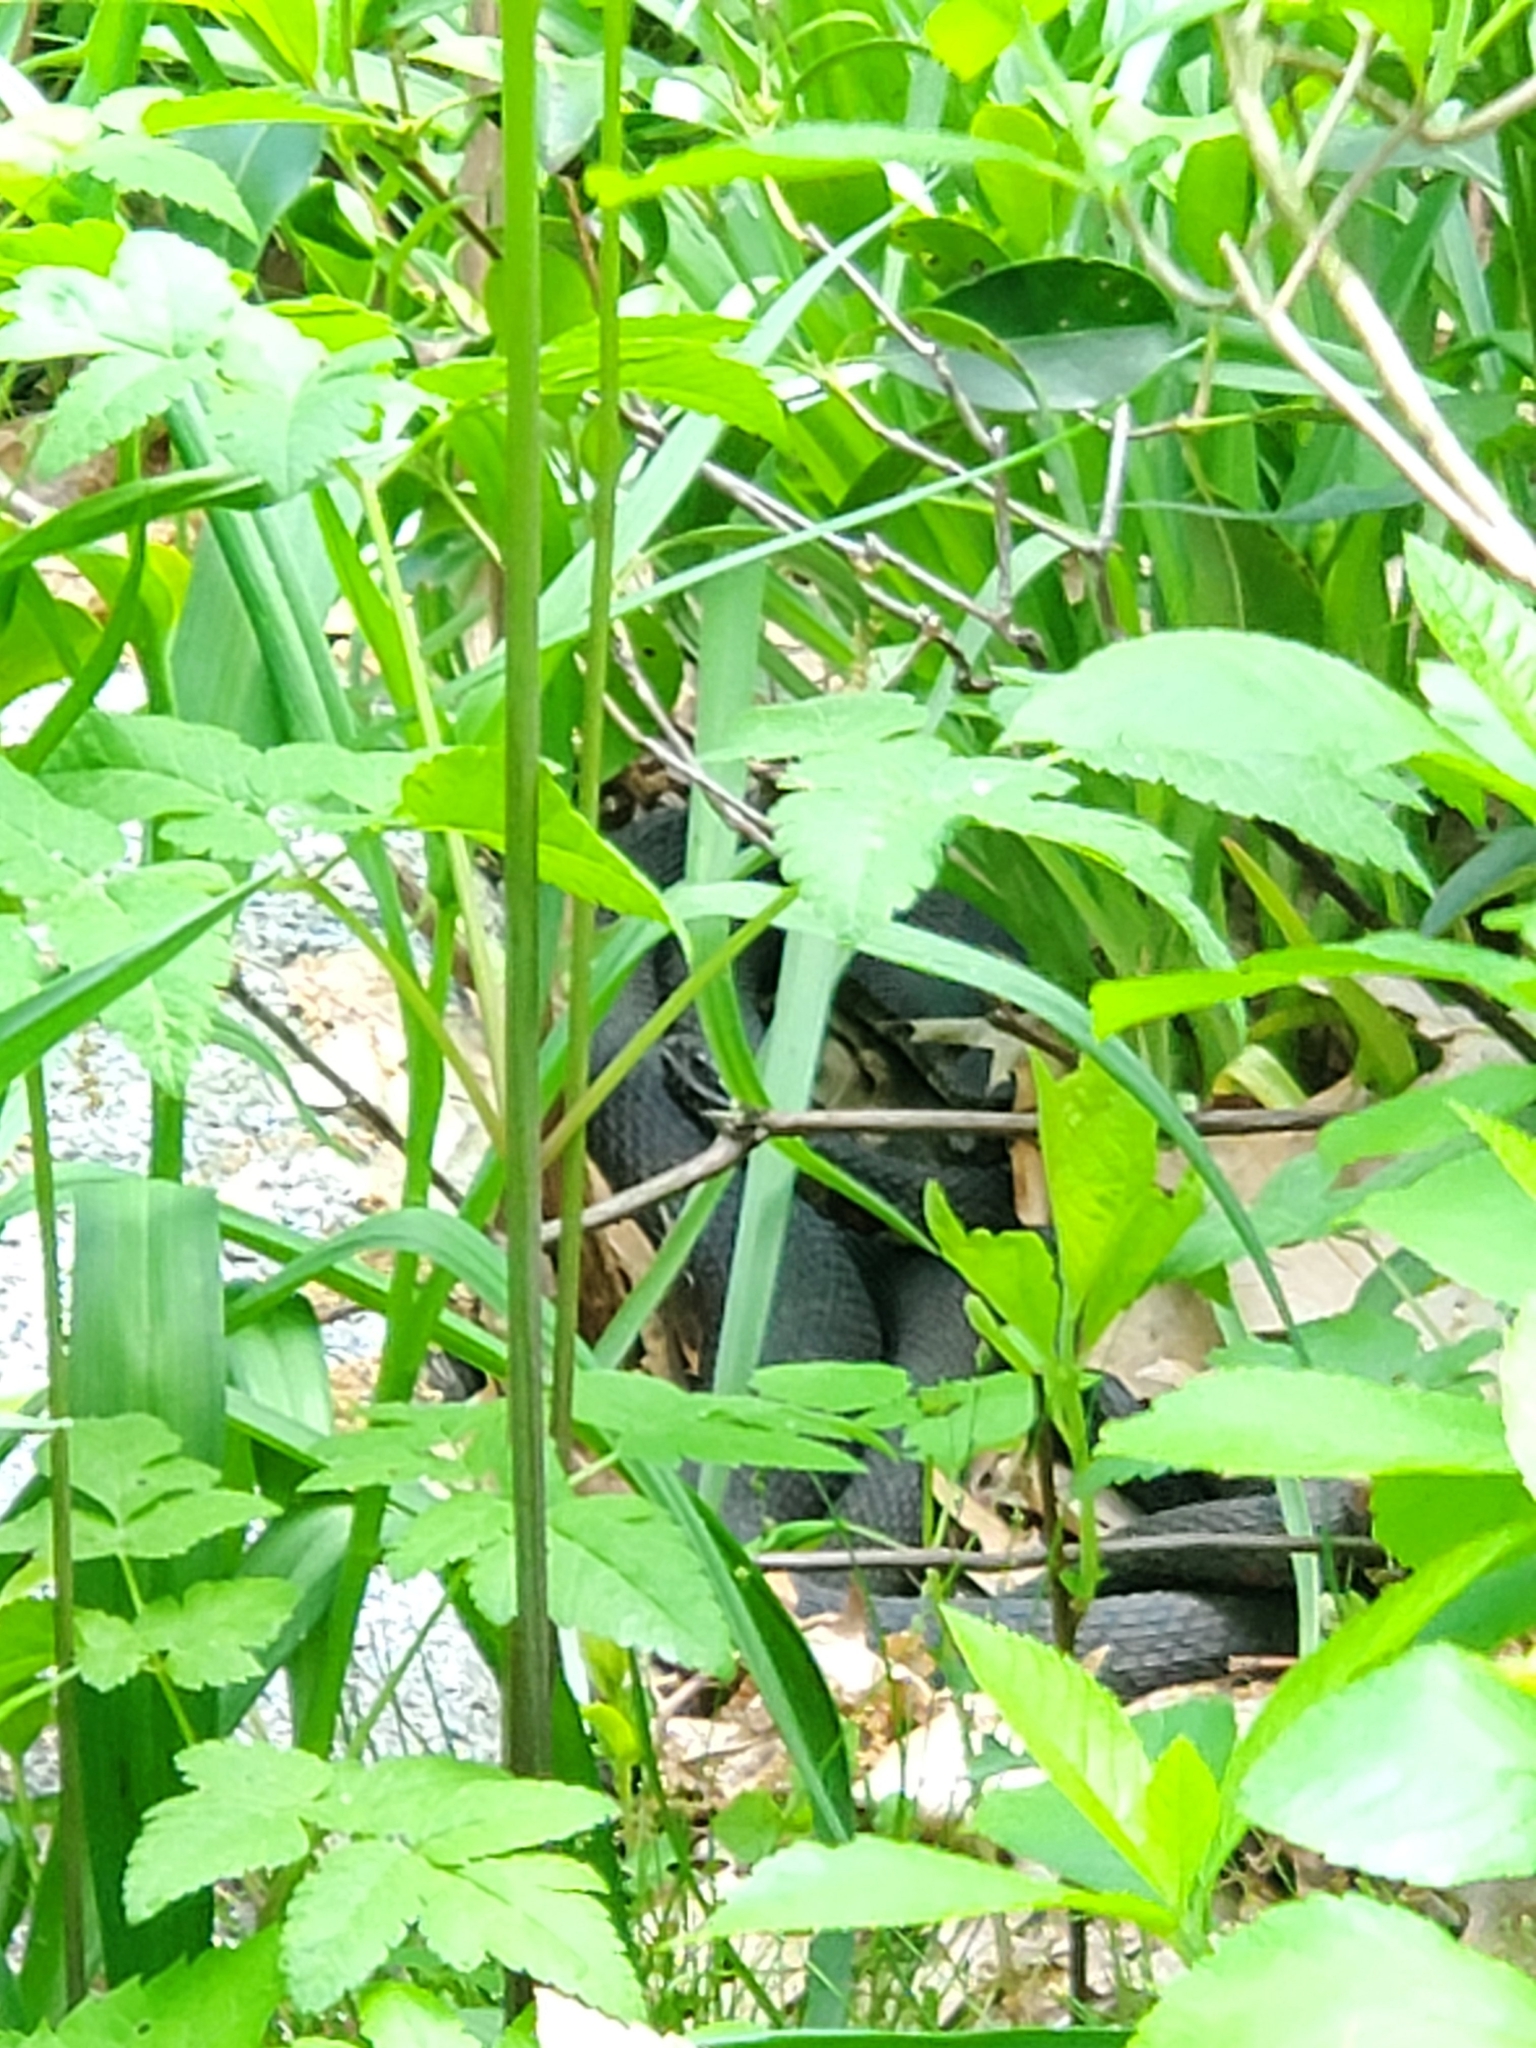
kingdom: Animalia
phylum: Chordata
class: Squamata
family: Colubridae
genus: Nerodia
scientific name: Nerodia sipedon
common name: Northern water snake
